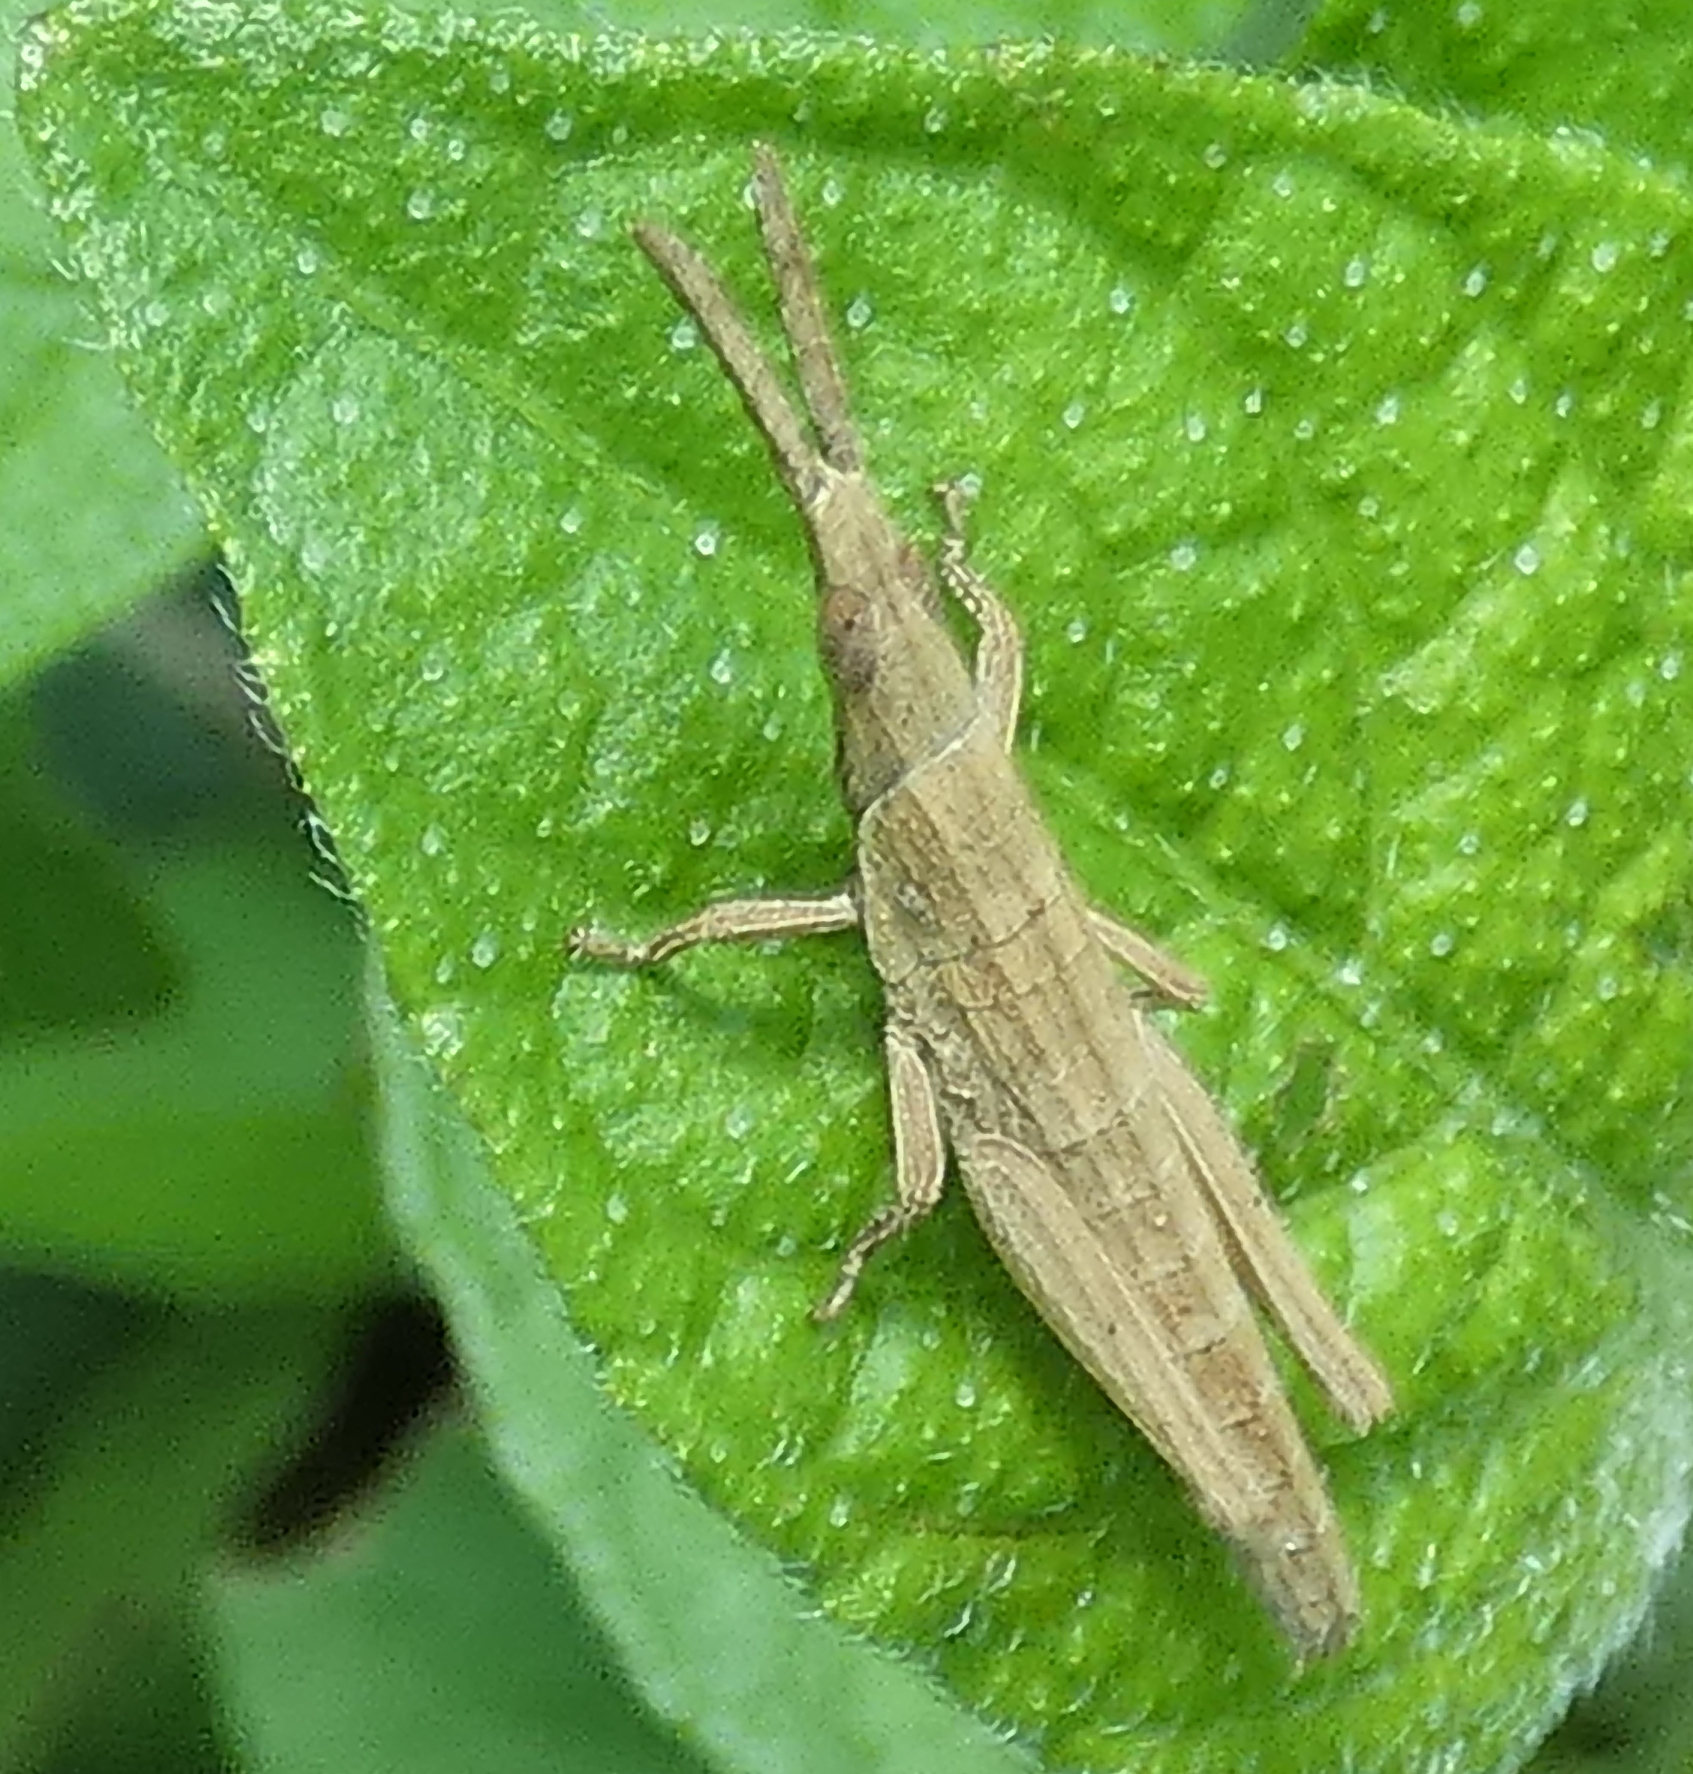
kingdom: Animalia
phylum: Arthropoda
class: Insecta
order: Orthoptera
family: Pyrgomorphidae
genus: Algete
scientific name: Algete brunneri
